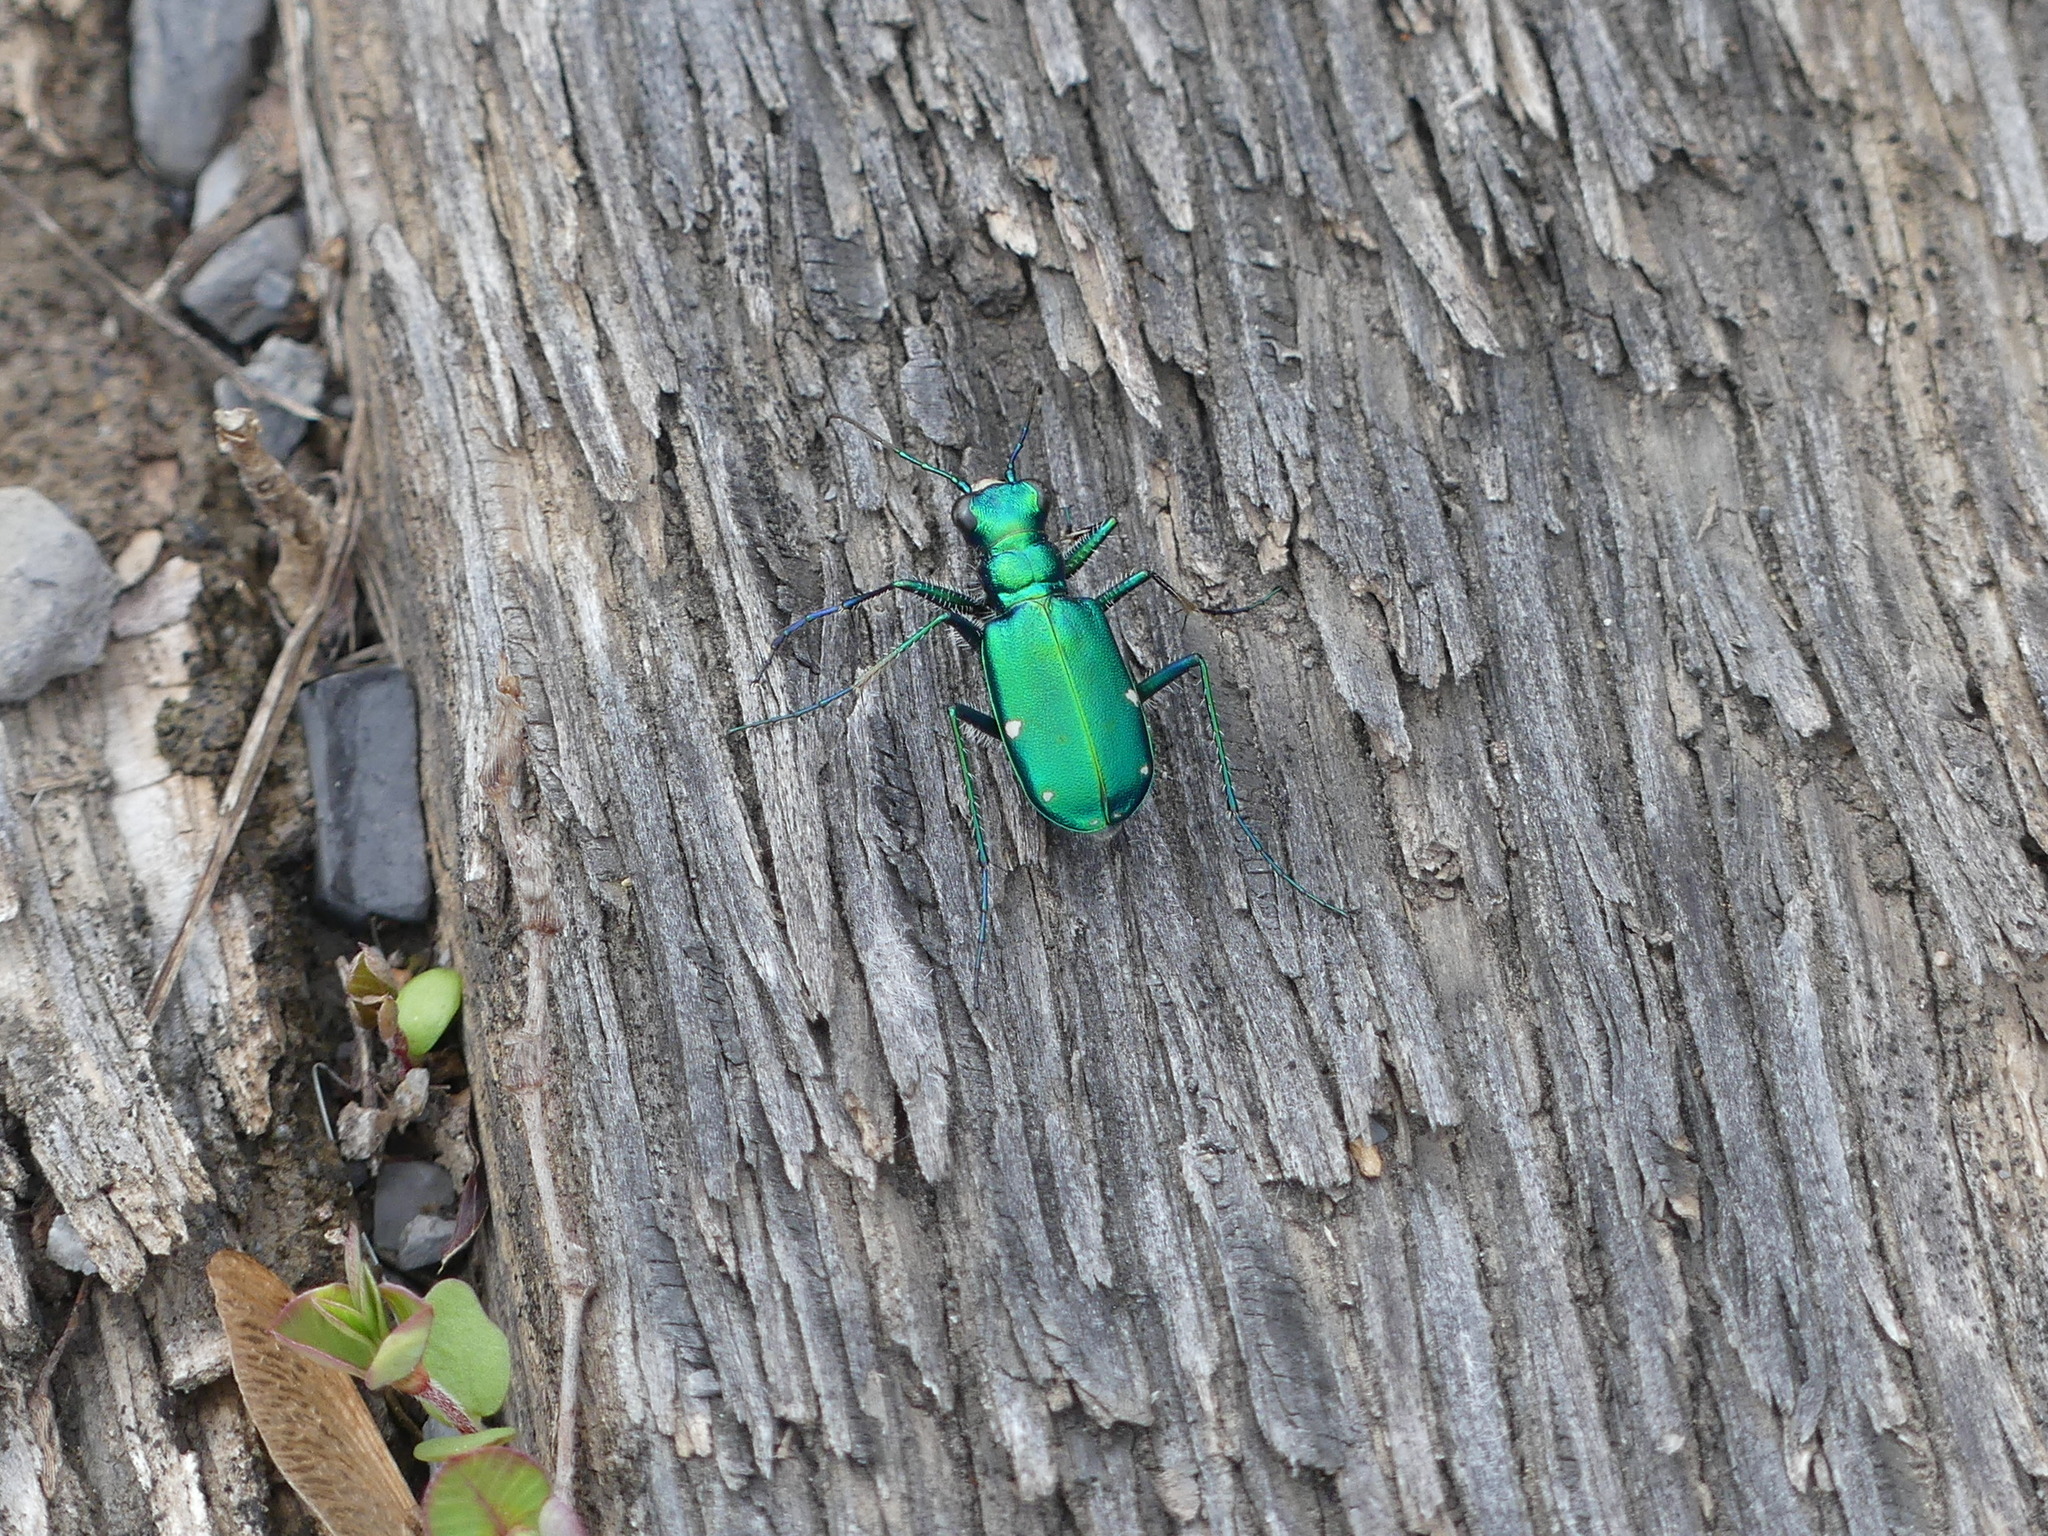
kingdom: Animalia
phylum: Arthropoda
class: Insecta
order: Coleoptera
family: Carabidae
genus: Cicindela
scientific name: Cicindela sexguttata
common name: Six-spotted tiger beetle
